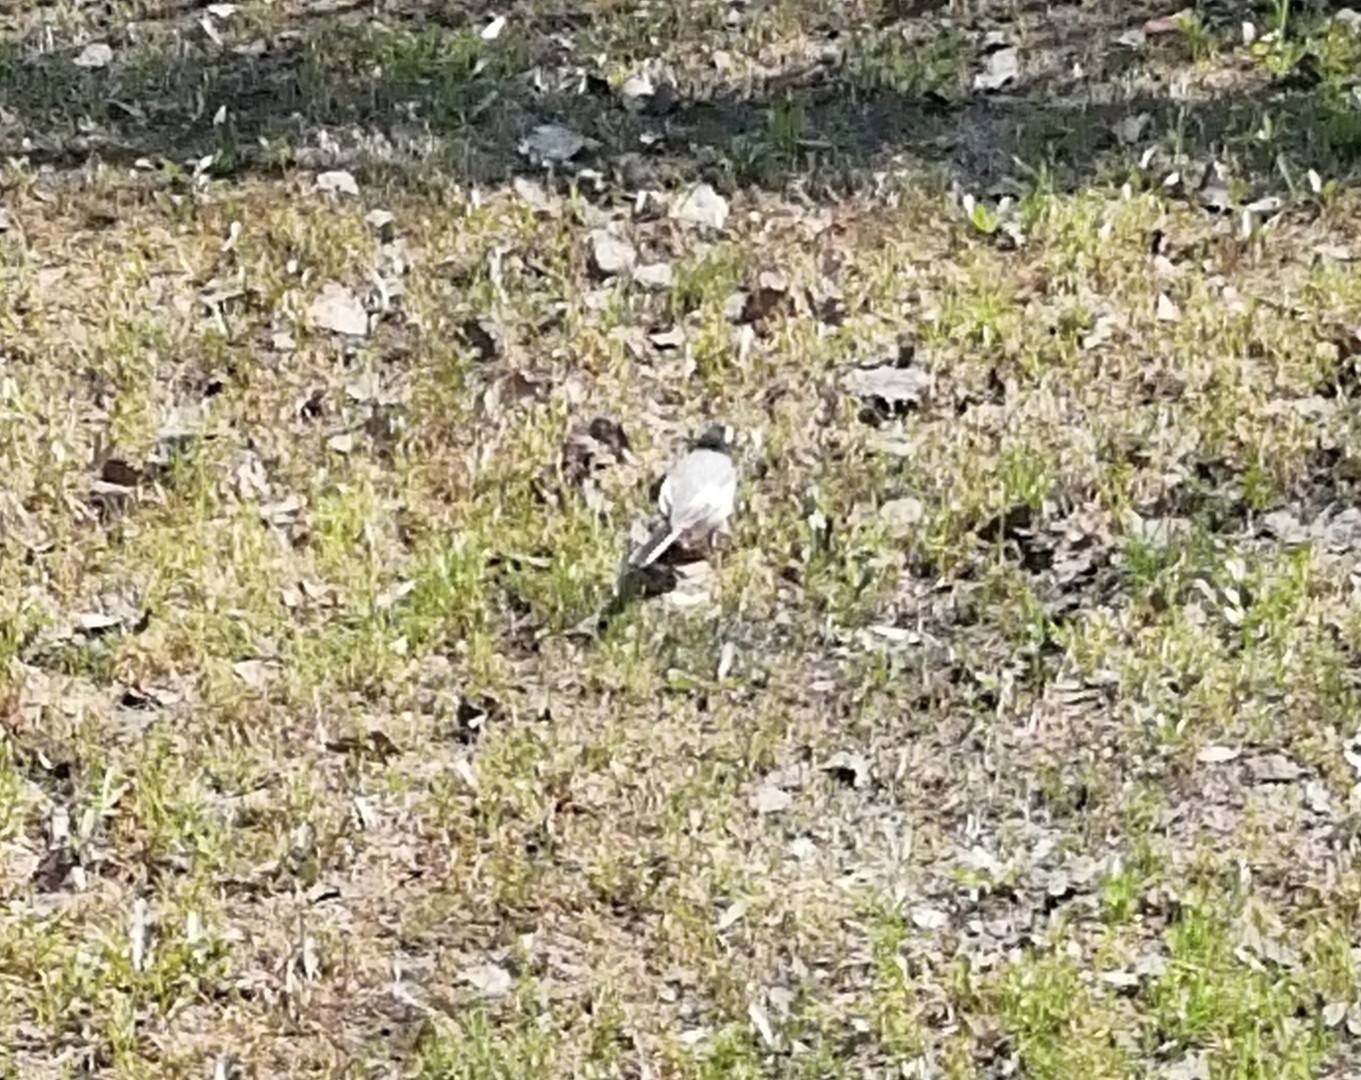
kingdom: Animalia
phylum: Chordata
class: Aves
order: Passeriformes
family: Motacillidae
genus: Motacilla
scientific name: Motacilla alba
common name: White wagtail
